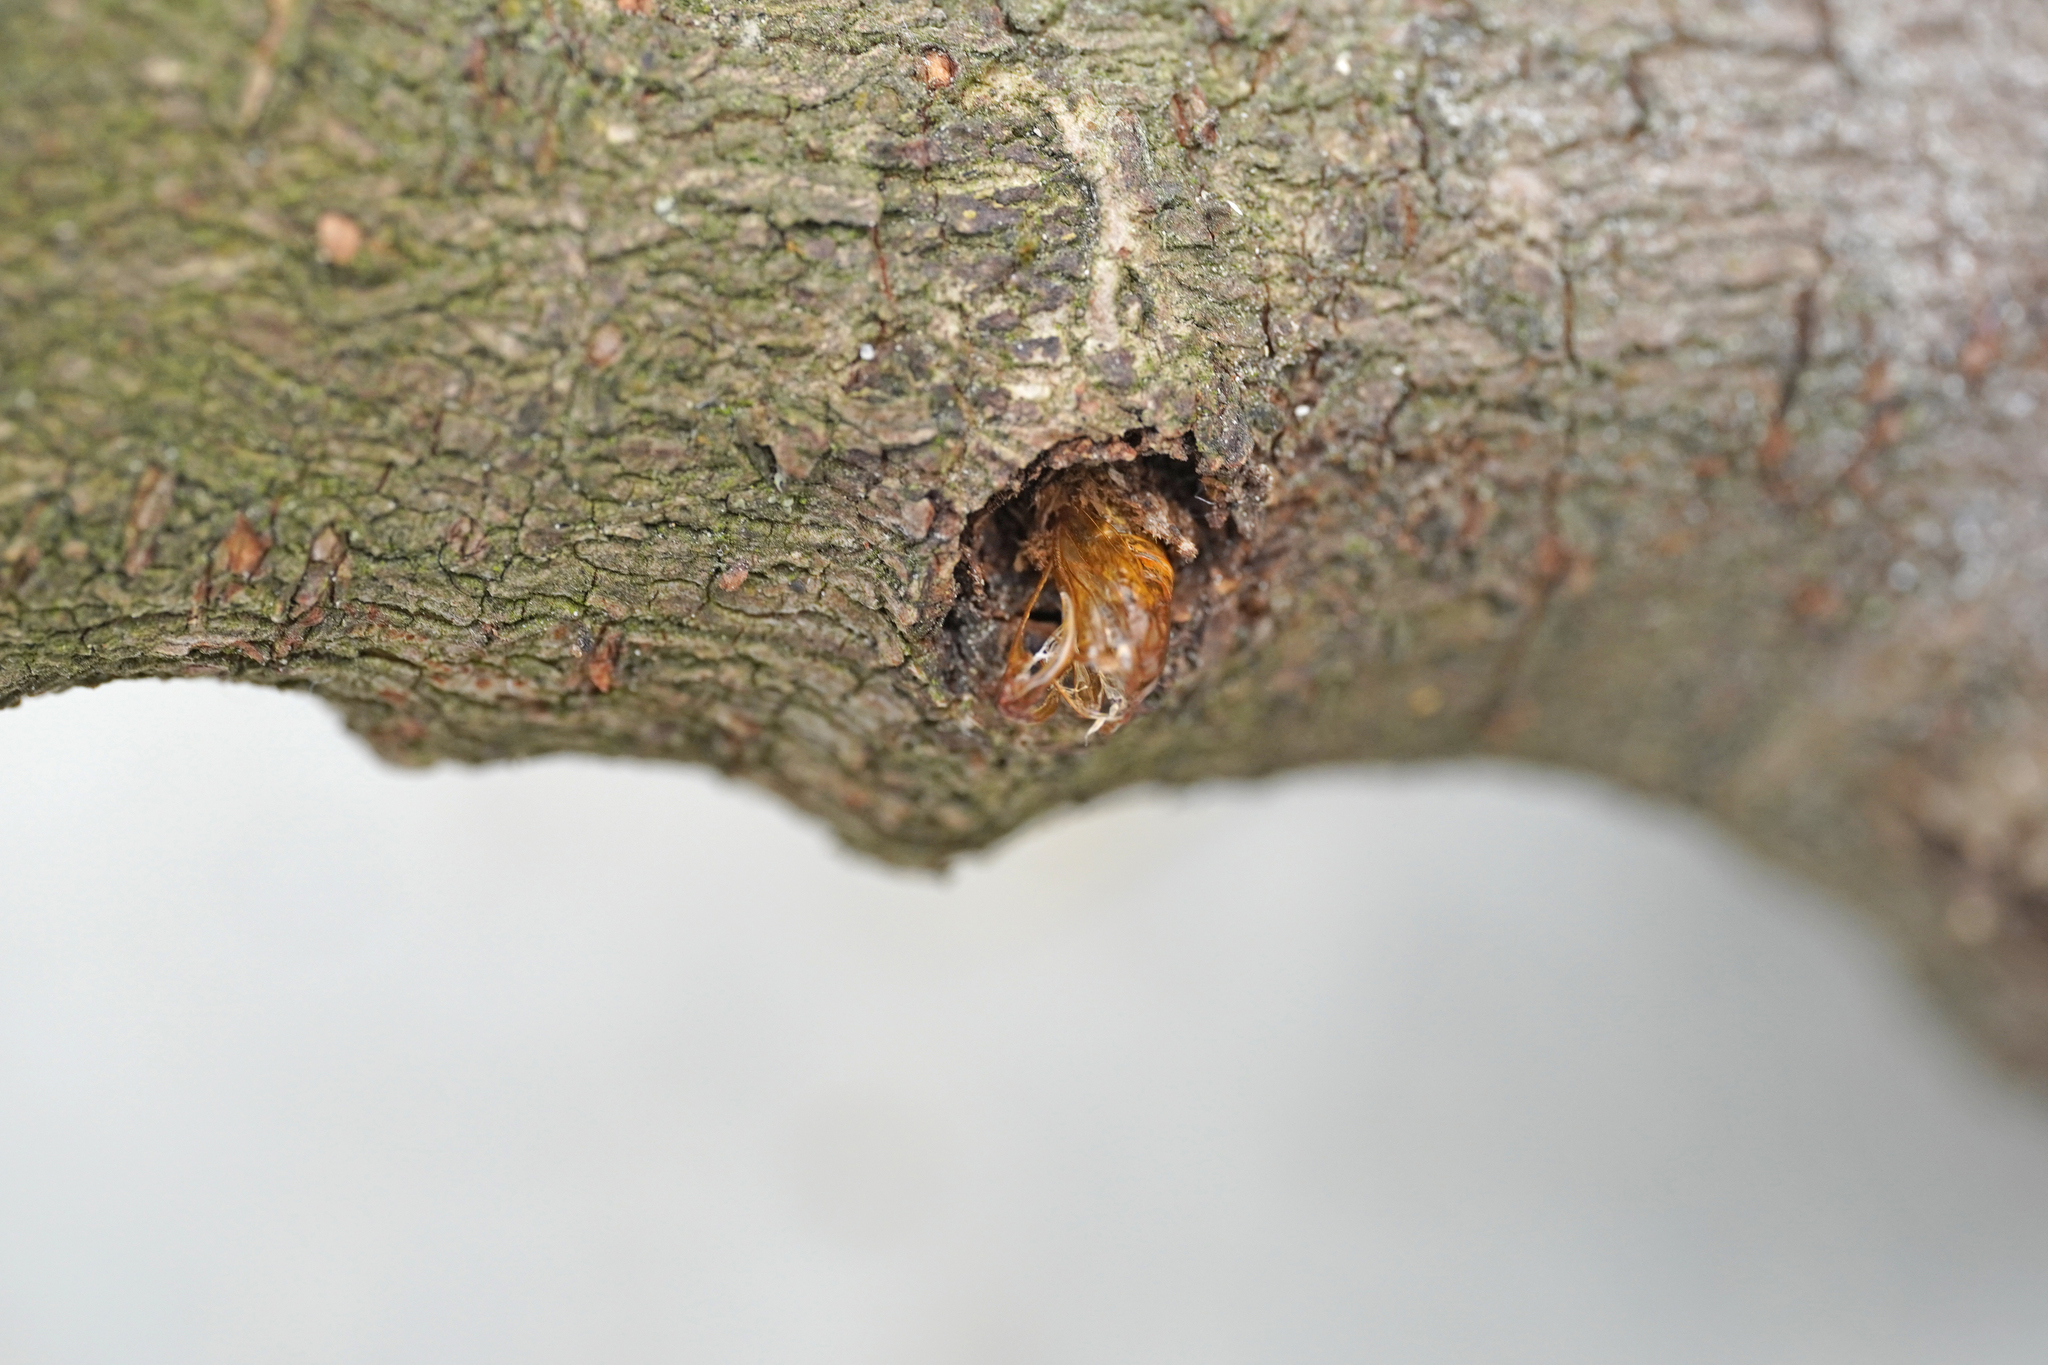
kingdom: Animalia
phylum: Arthropoda
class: Insecta
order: Lepidoptera
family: Sesiidae
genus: Synanthedon
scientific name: Synanthedon andrenaeformis
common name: Orange-tailed clearwing
